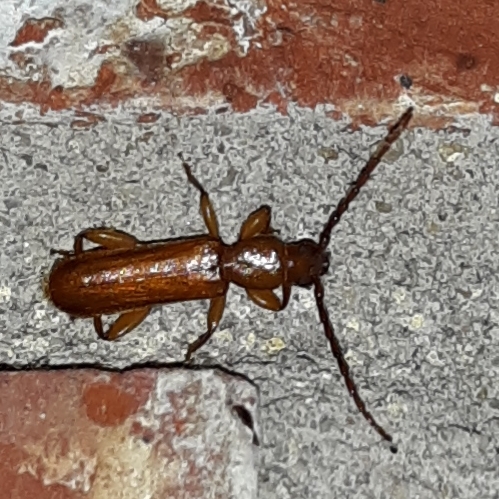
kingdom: Animalia
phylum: Arthropoda
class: Insecta
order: Coleoptera
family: Cerambycidae
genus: Smodicum
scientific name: Smodicum cucujiforme
